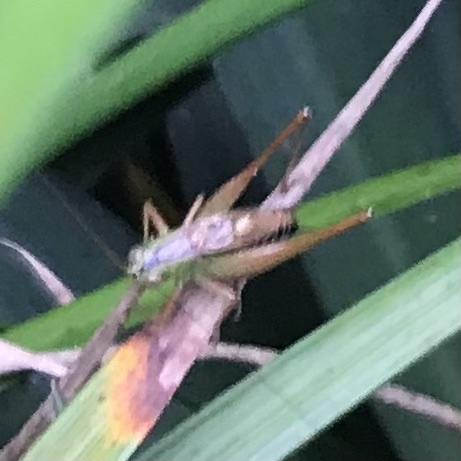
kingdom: Animalia
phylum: Arthropoda
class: Insecta
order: Orthoptera
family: Tettigoniidae
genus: Conocephalus
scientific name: Conocephalus semivittatus
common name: Blackish meadow katydid
